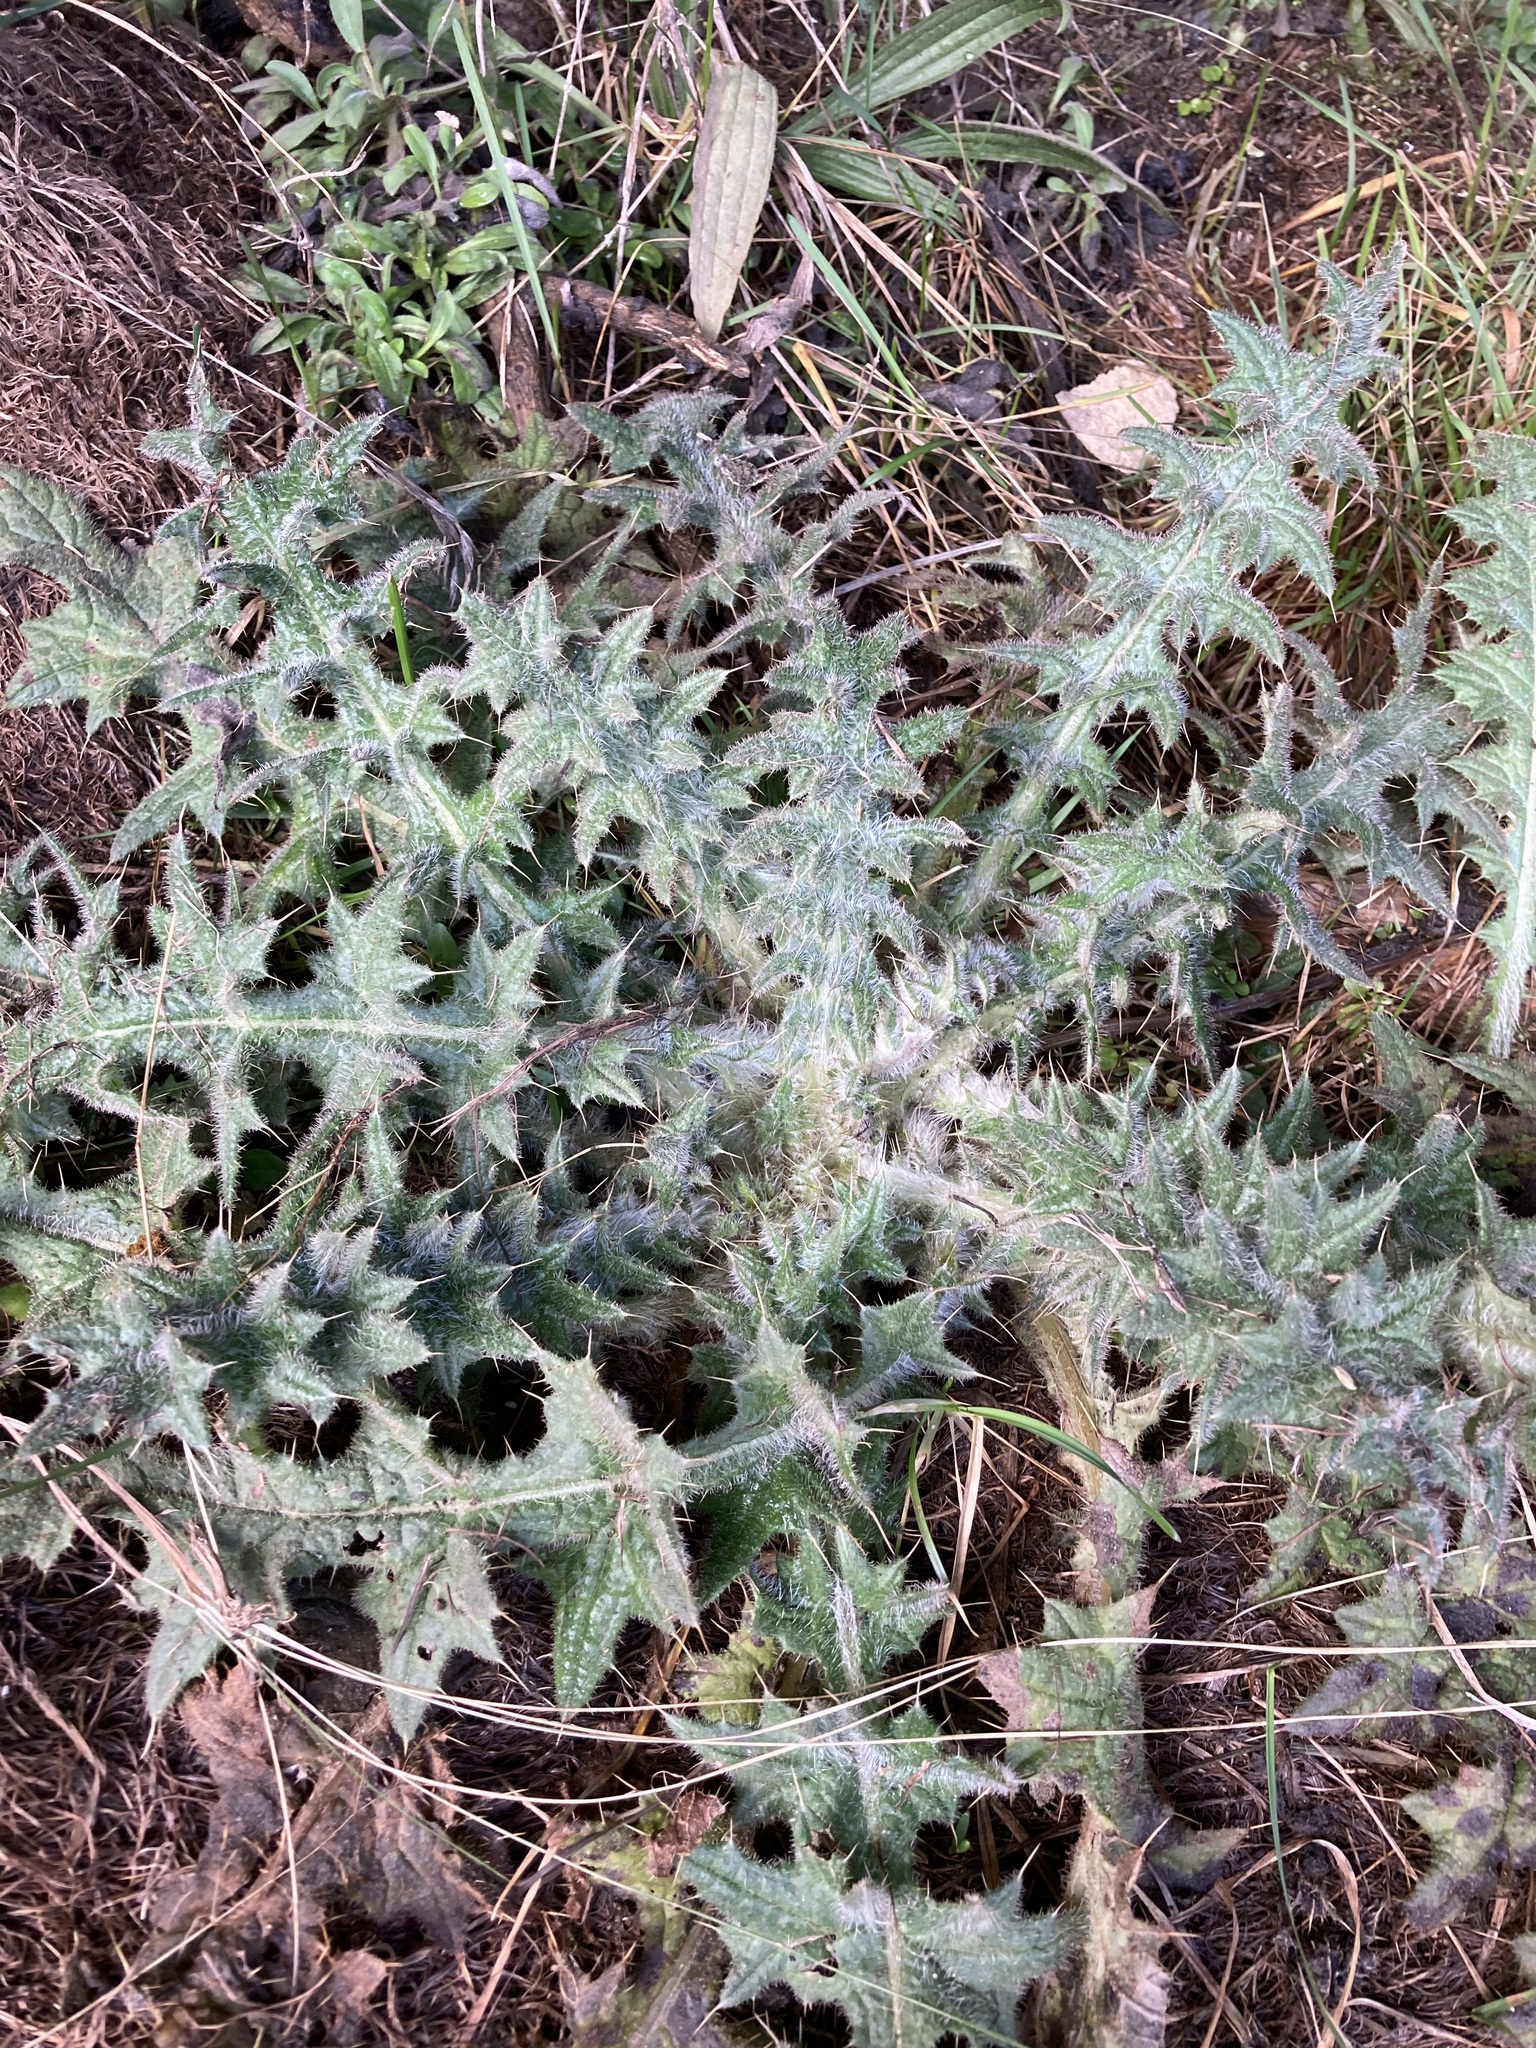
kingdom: Plantae
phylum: Tracheophyta
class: Magnoliopsida
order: Asterales
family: Asteraceae
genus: Cirsium
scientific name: Cirsium vulgare
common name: Bull thistle
